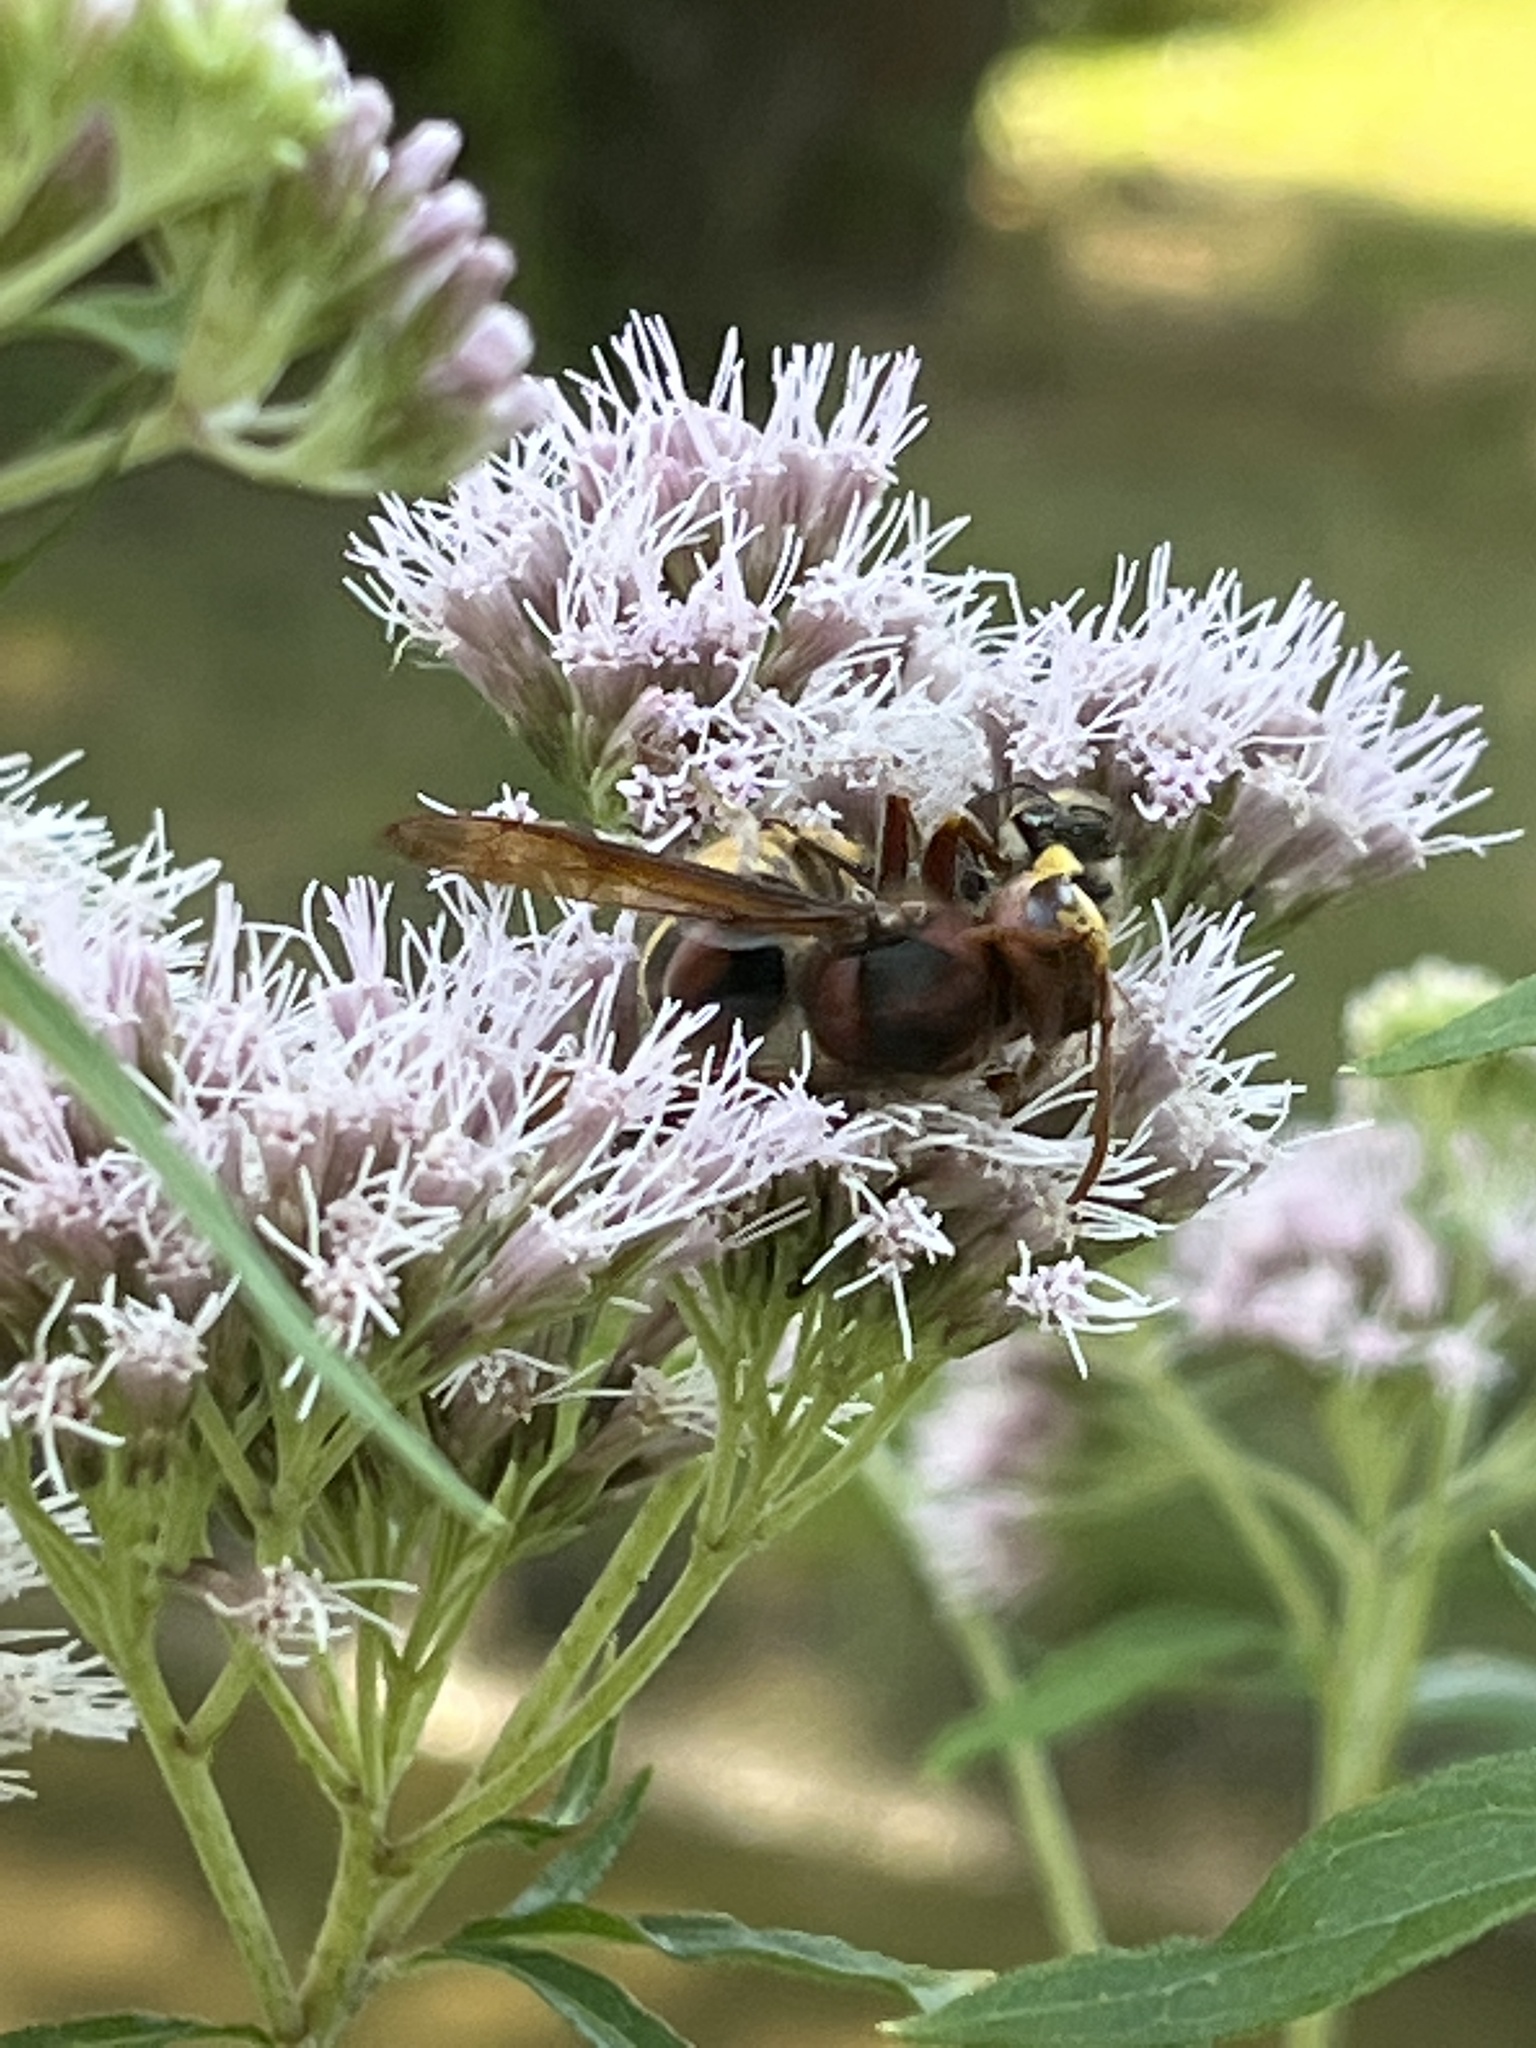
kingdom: Animalia
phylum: Arthropoda
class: Insecta
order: Hymenoptera
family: Vespidae
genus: Vespa
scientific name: Vespa crabro
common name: Hornet
